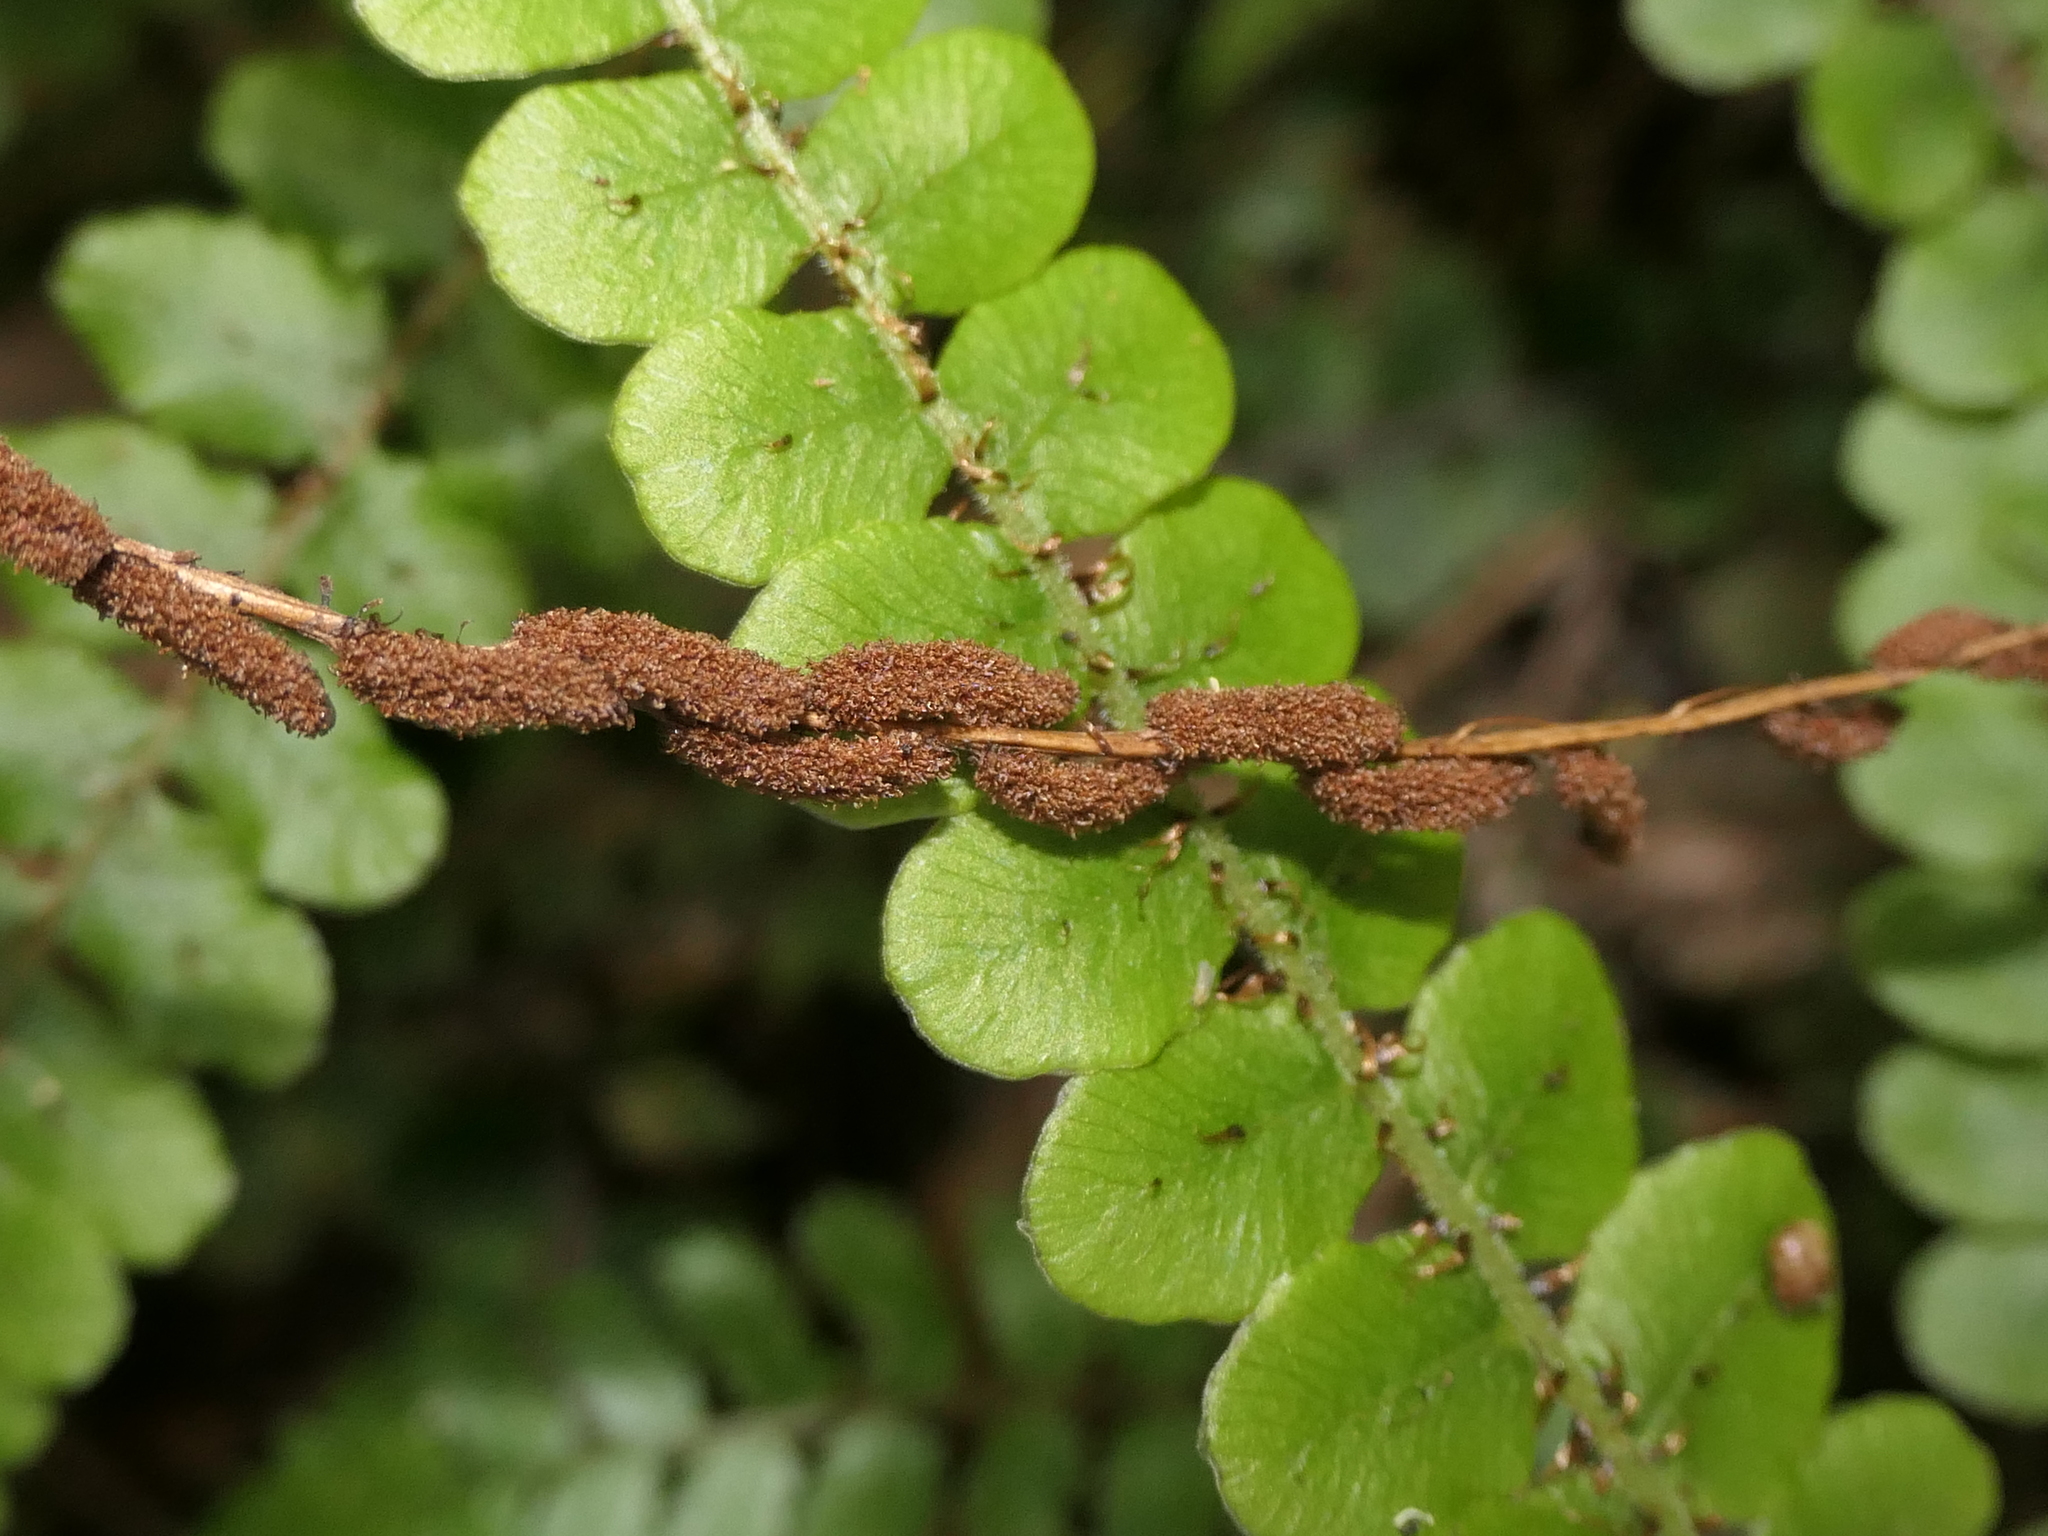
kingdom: Plantae
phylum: Tracheophyta
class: Polypodiopsida
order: Polypodiales
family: Blechnaceae
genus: Cranfillia
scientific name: Cranfillia fluviatilis
